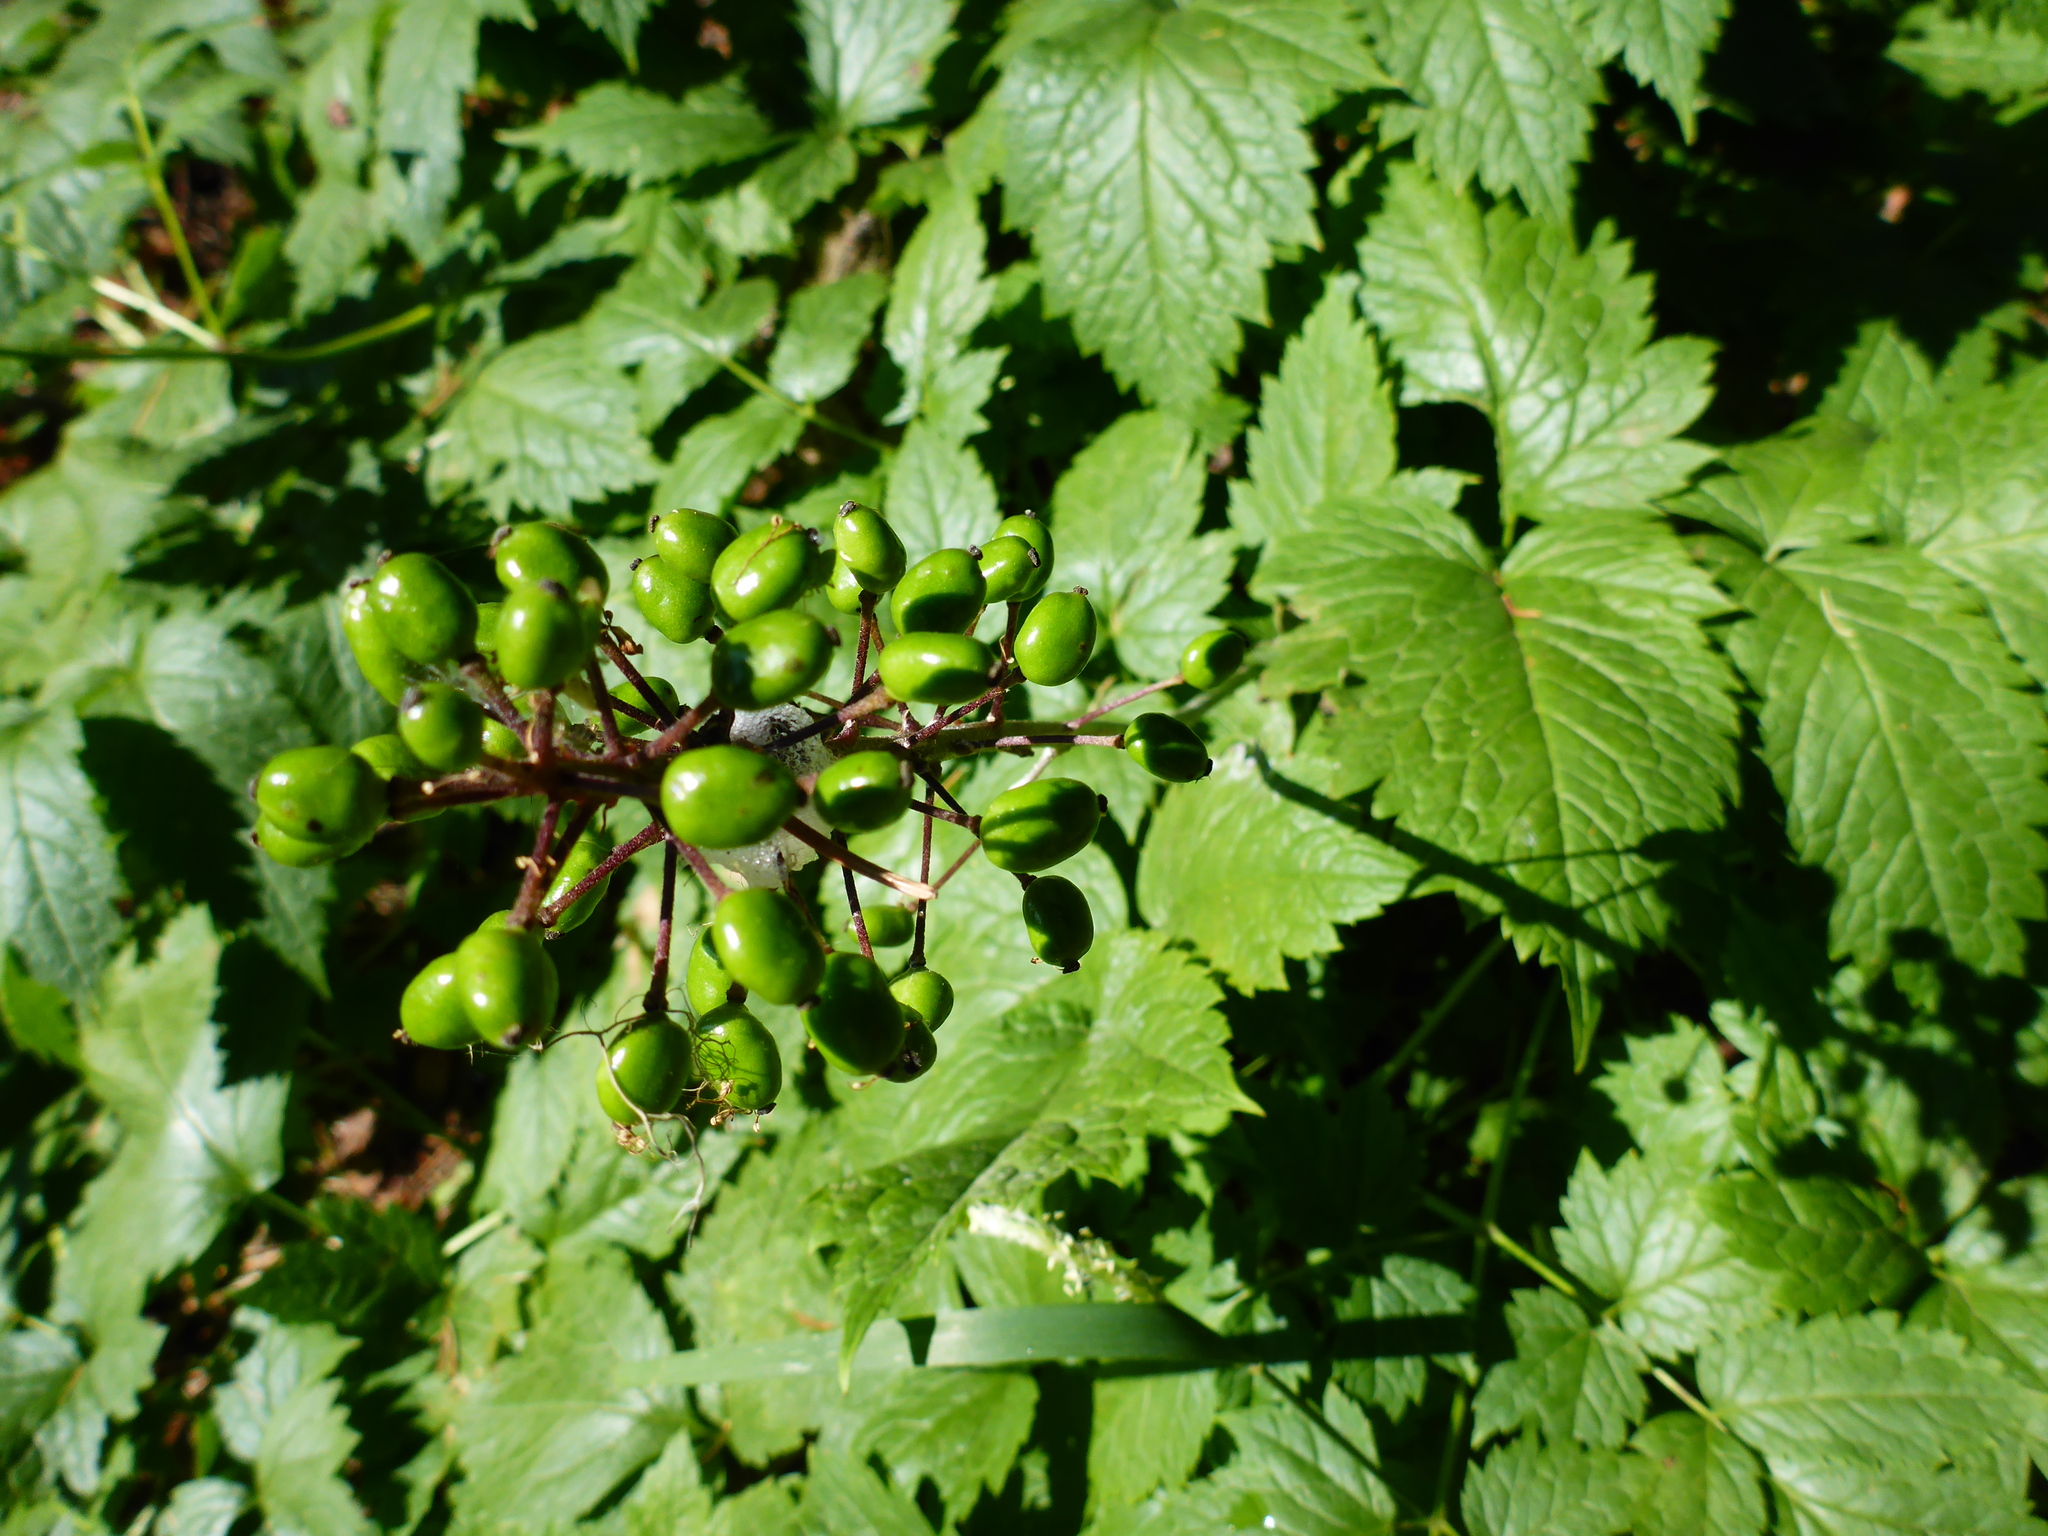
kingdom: Plantae
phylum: Tracheophyta
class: Magnoliopsida
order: Ranunculales
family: Ranunculaceae
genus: Actaea
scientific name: Actaea rubra
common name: Red baneberry
